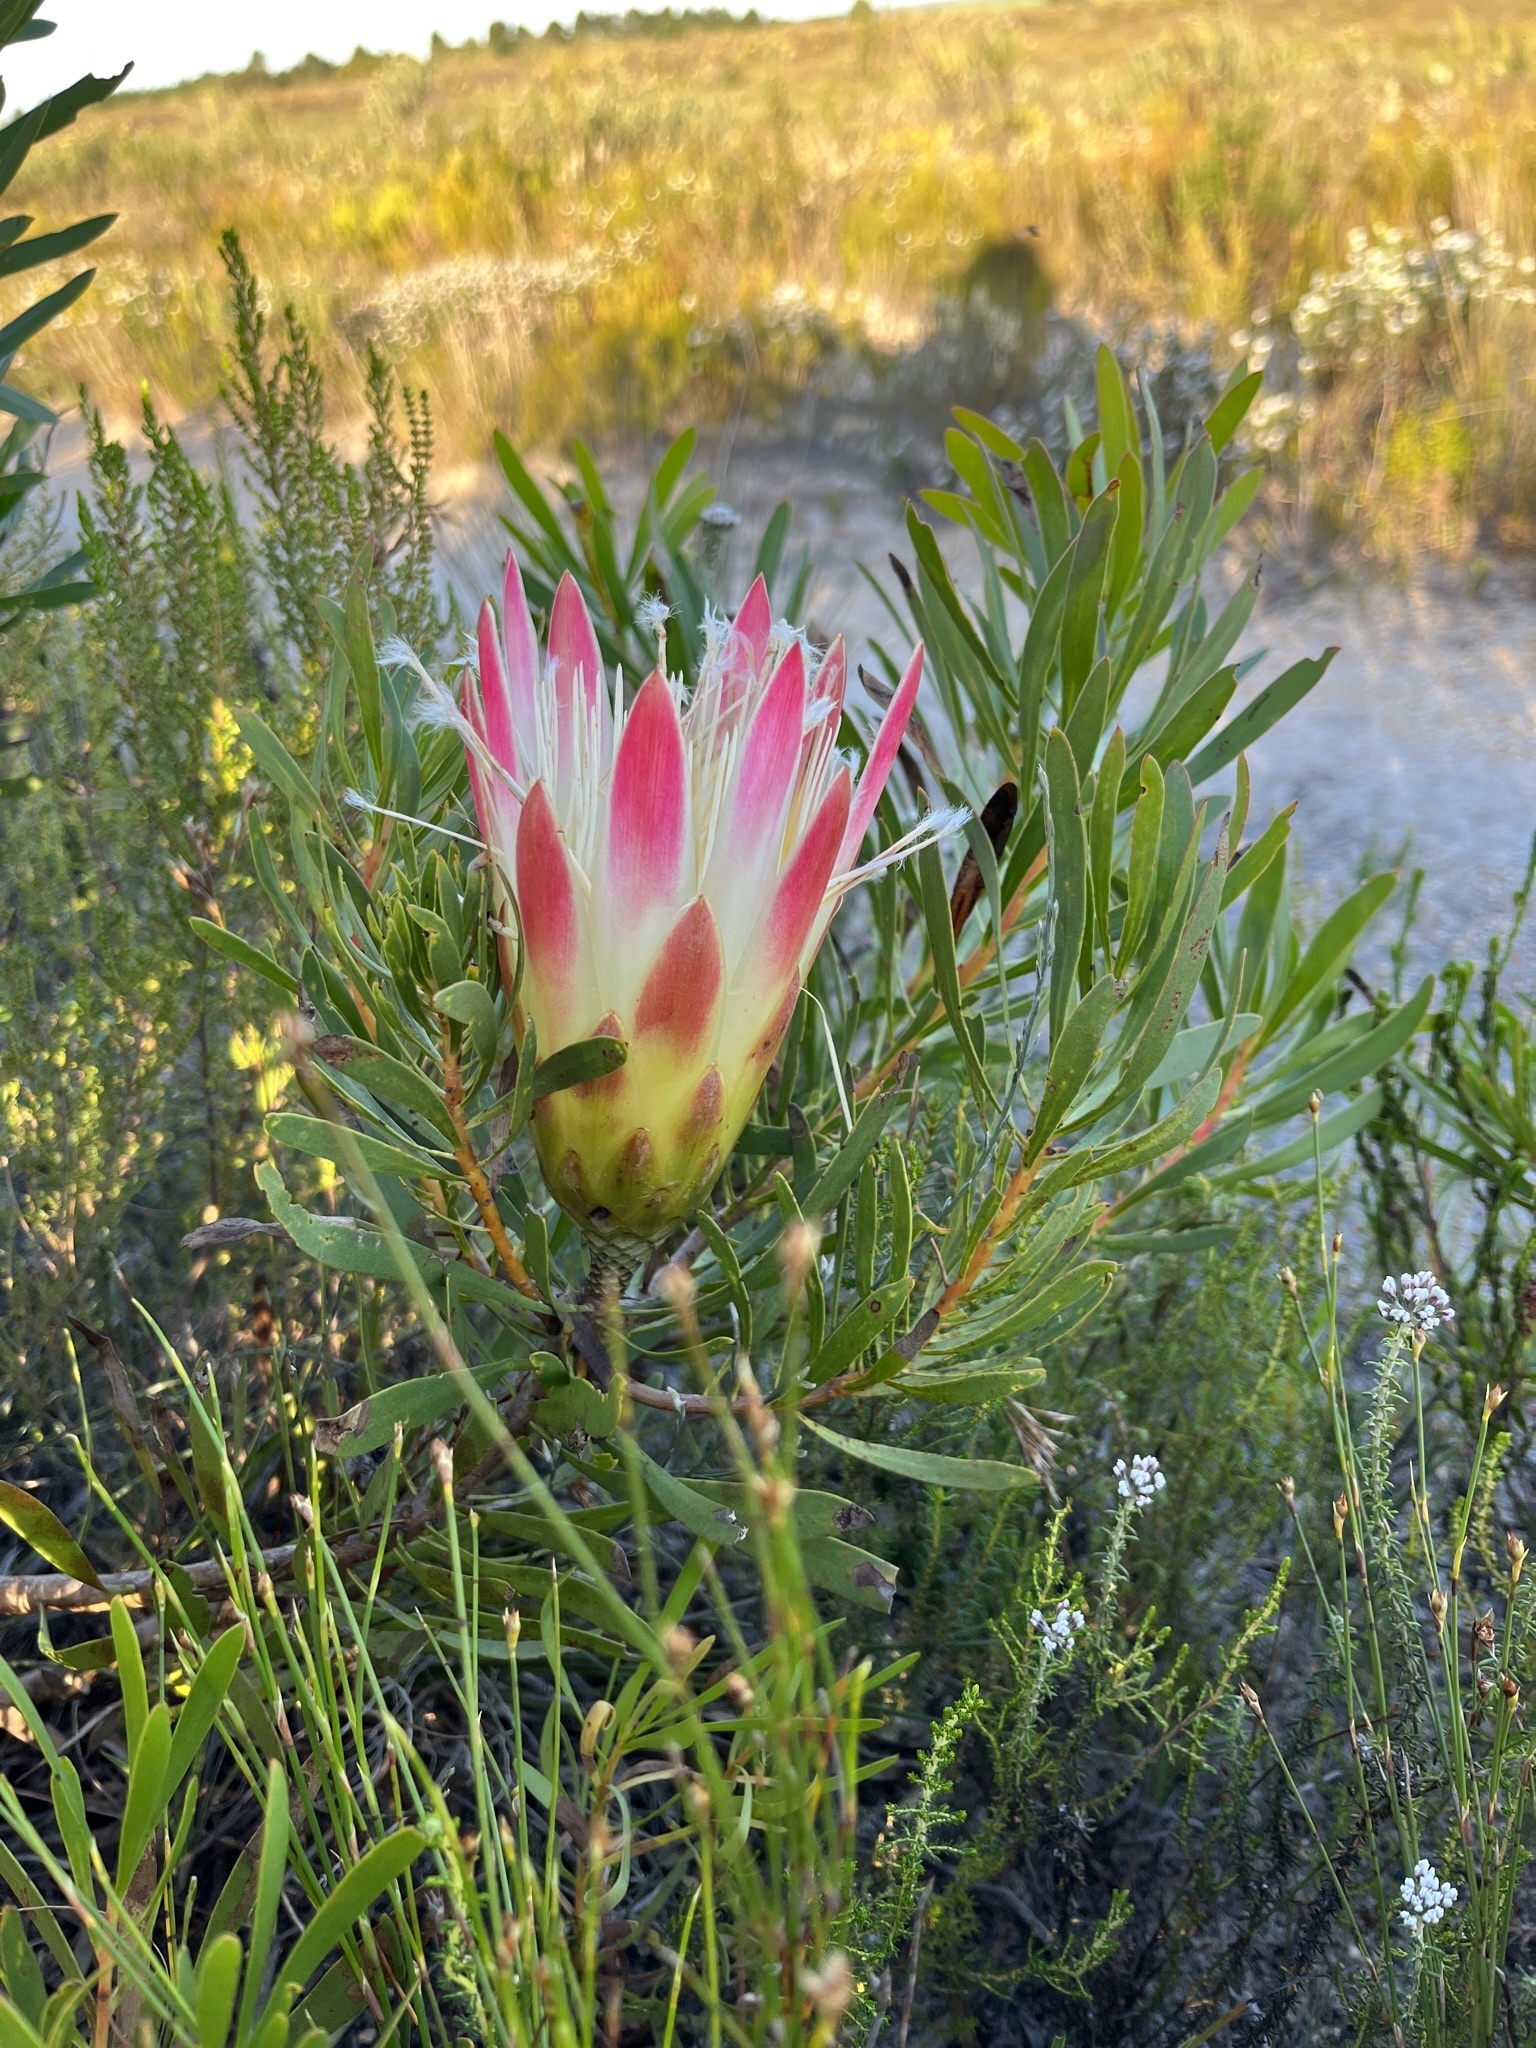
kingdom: Plantae
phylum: Tracheophyta
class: Magnoliopsida
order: Proteales
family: Proteaceae
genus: Protea
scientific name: Protea repens
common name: Sugarbush
